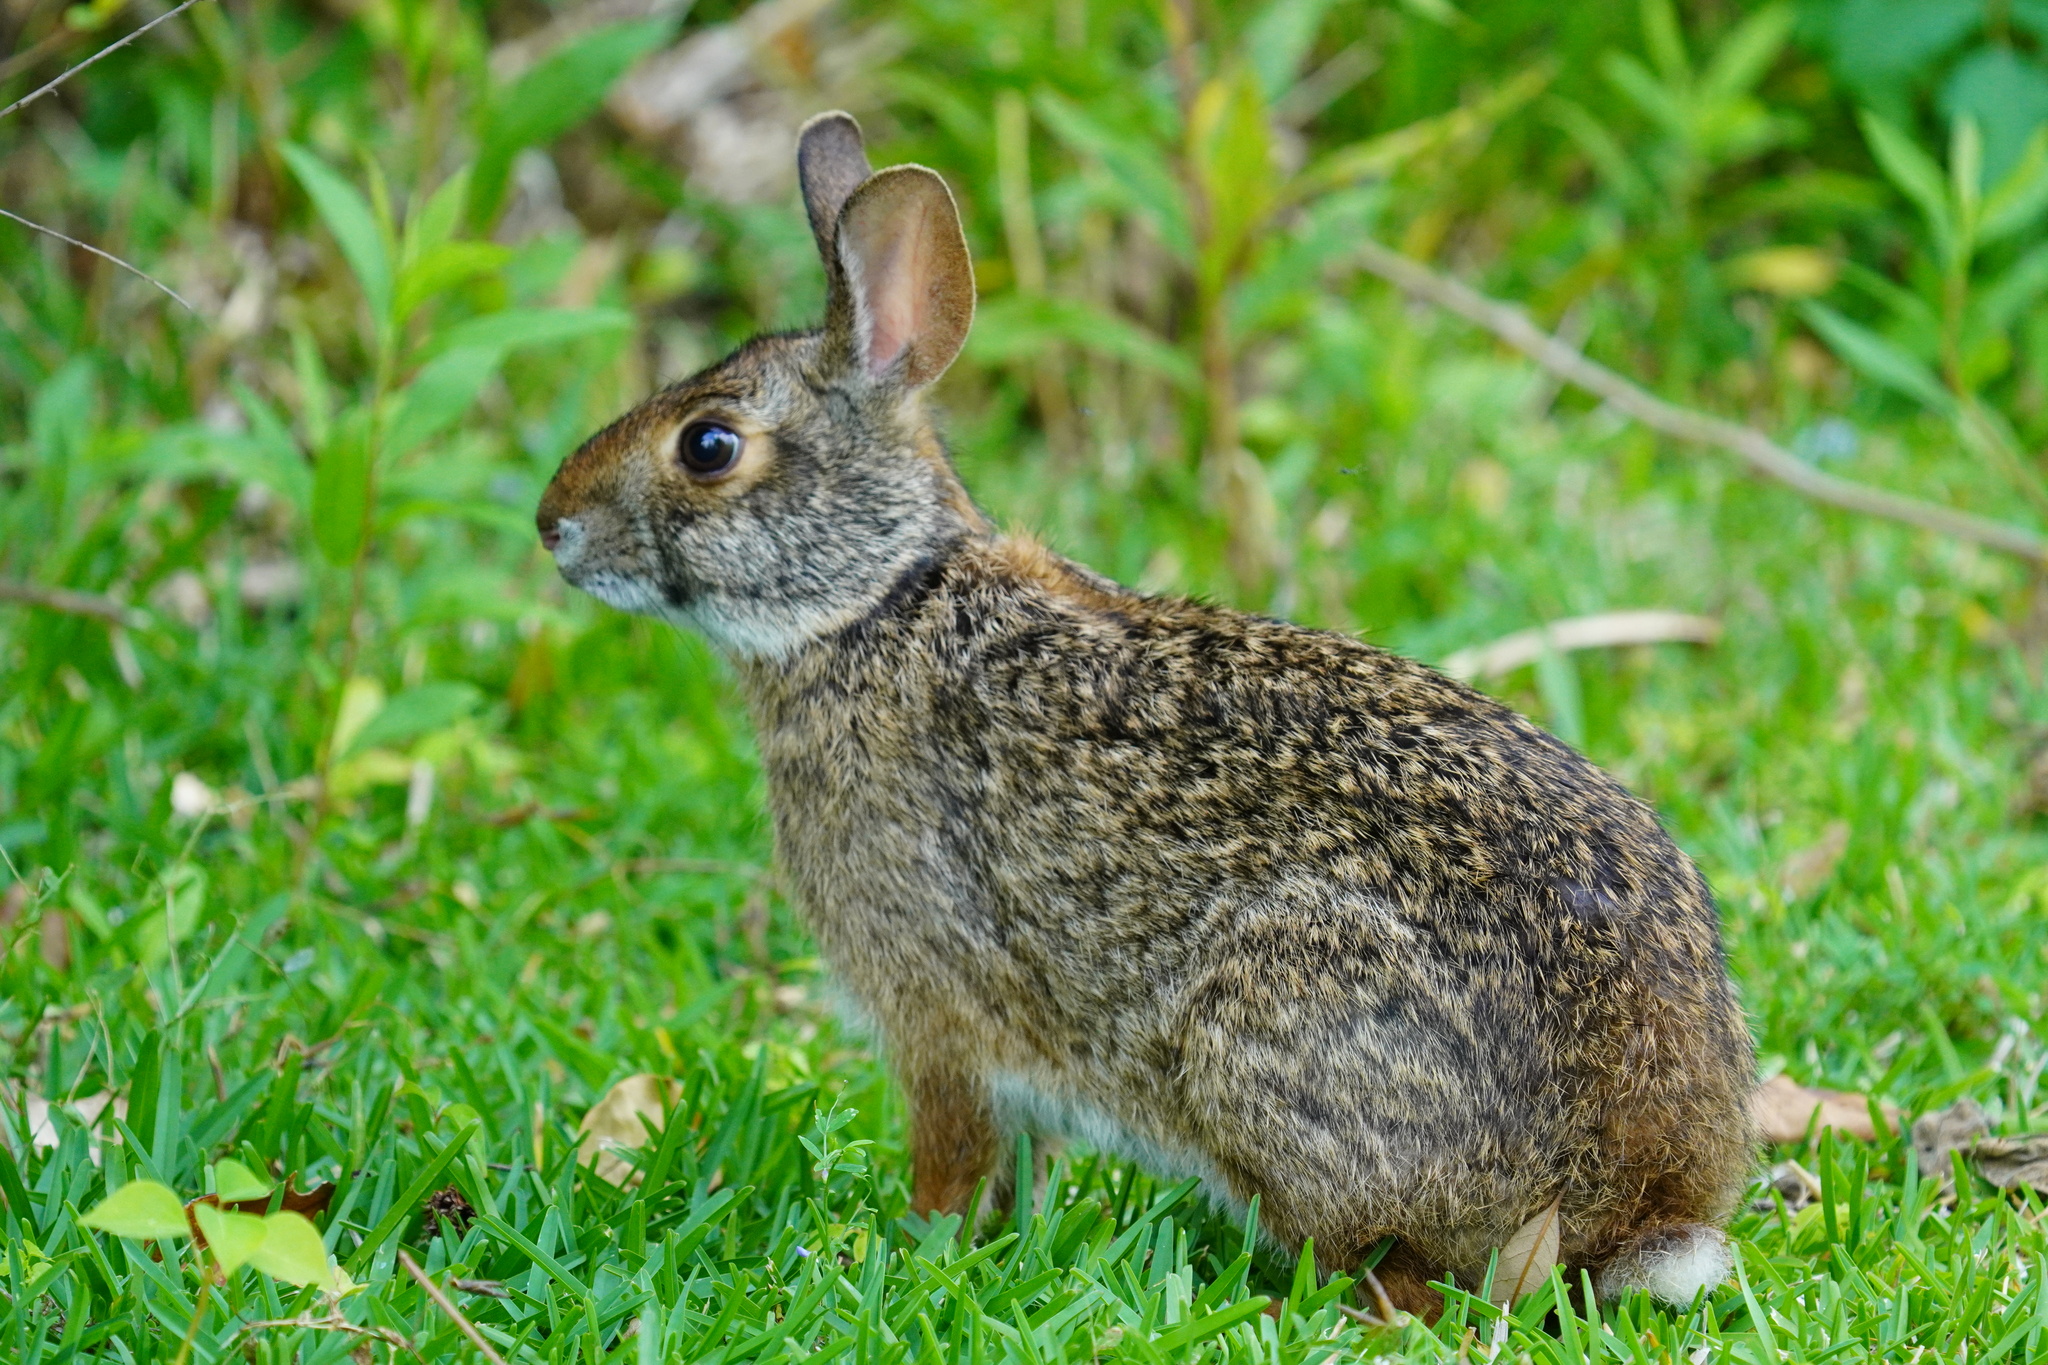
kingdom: Animalia
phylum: Chordata
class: Mammalia
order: Lagomorpha
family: Leporidae
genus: Sylvilagus
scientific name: Sylvilagus aquaticus
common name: Swamp rabbit
